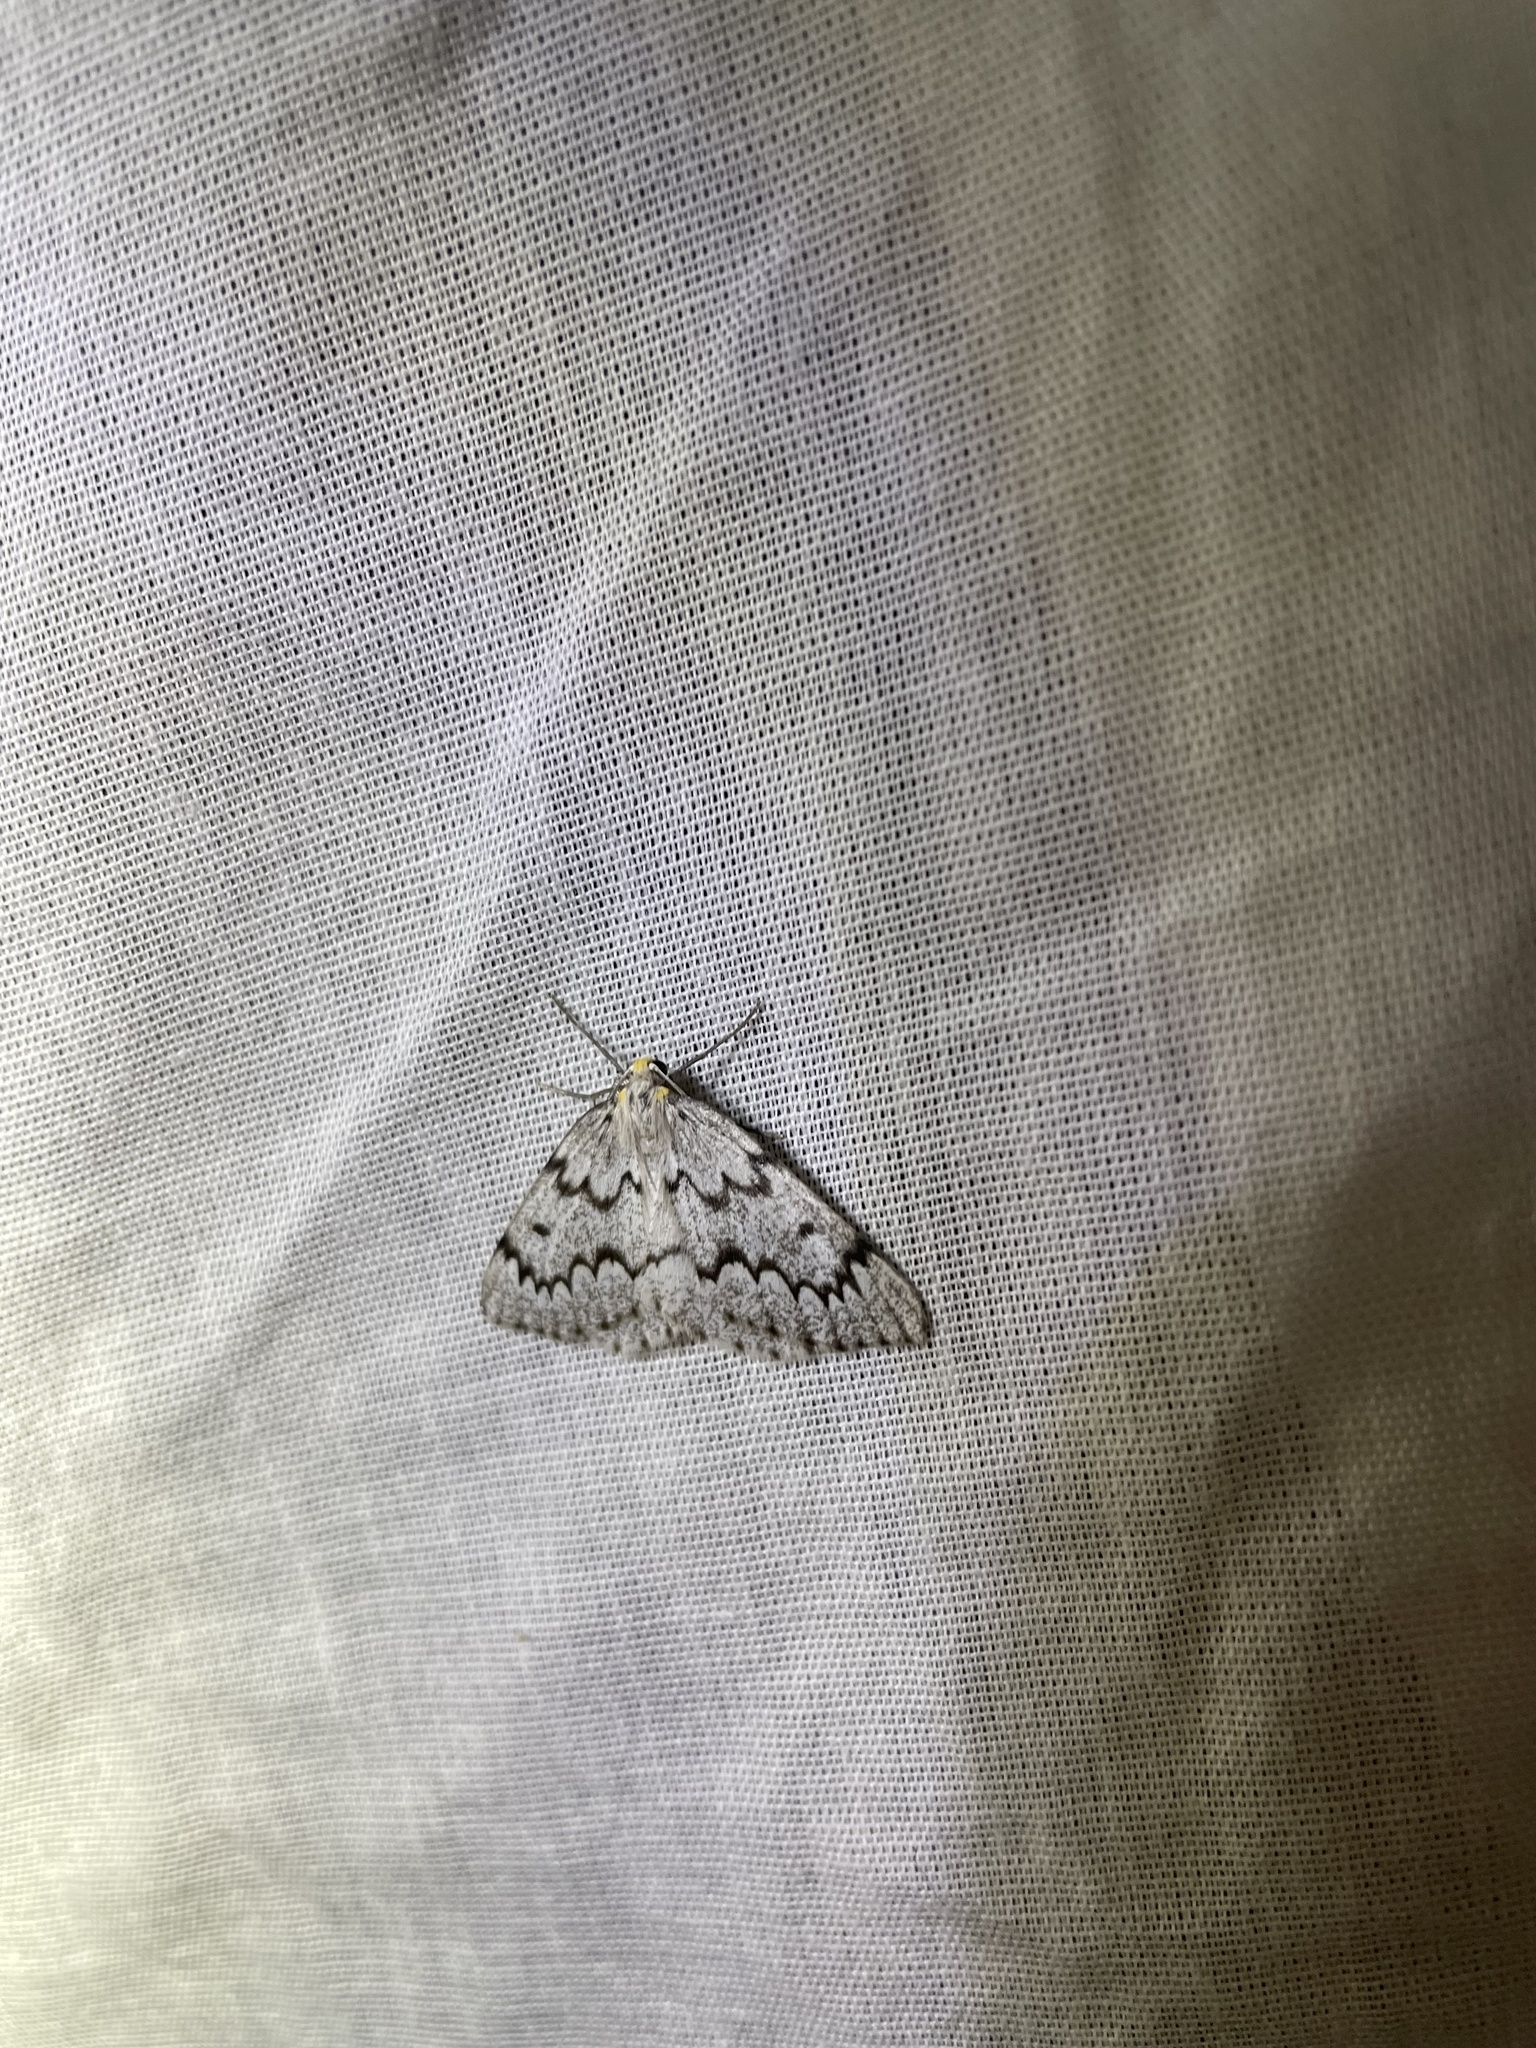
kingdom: Animalia
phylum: Arthropoda
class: Insecta
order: Lepidoptera
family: Geometridae
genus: Nepytia
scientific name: Nepytia canosaria
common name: False hemlock looper
